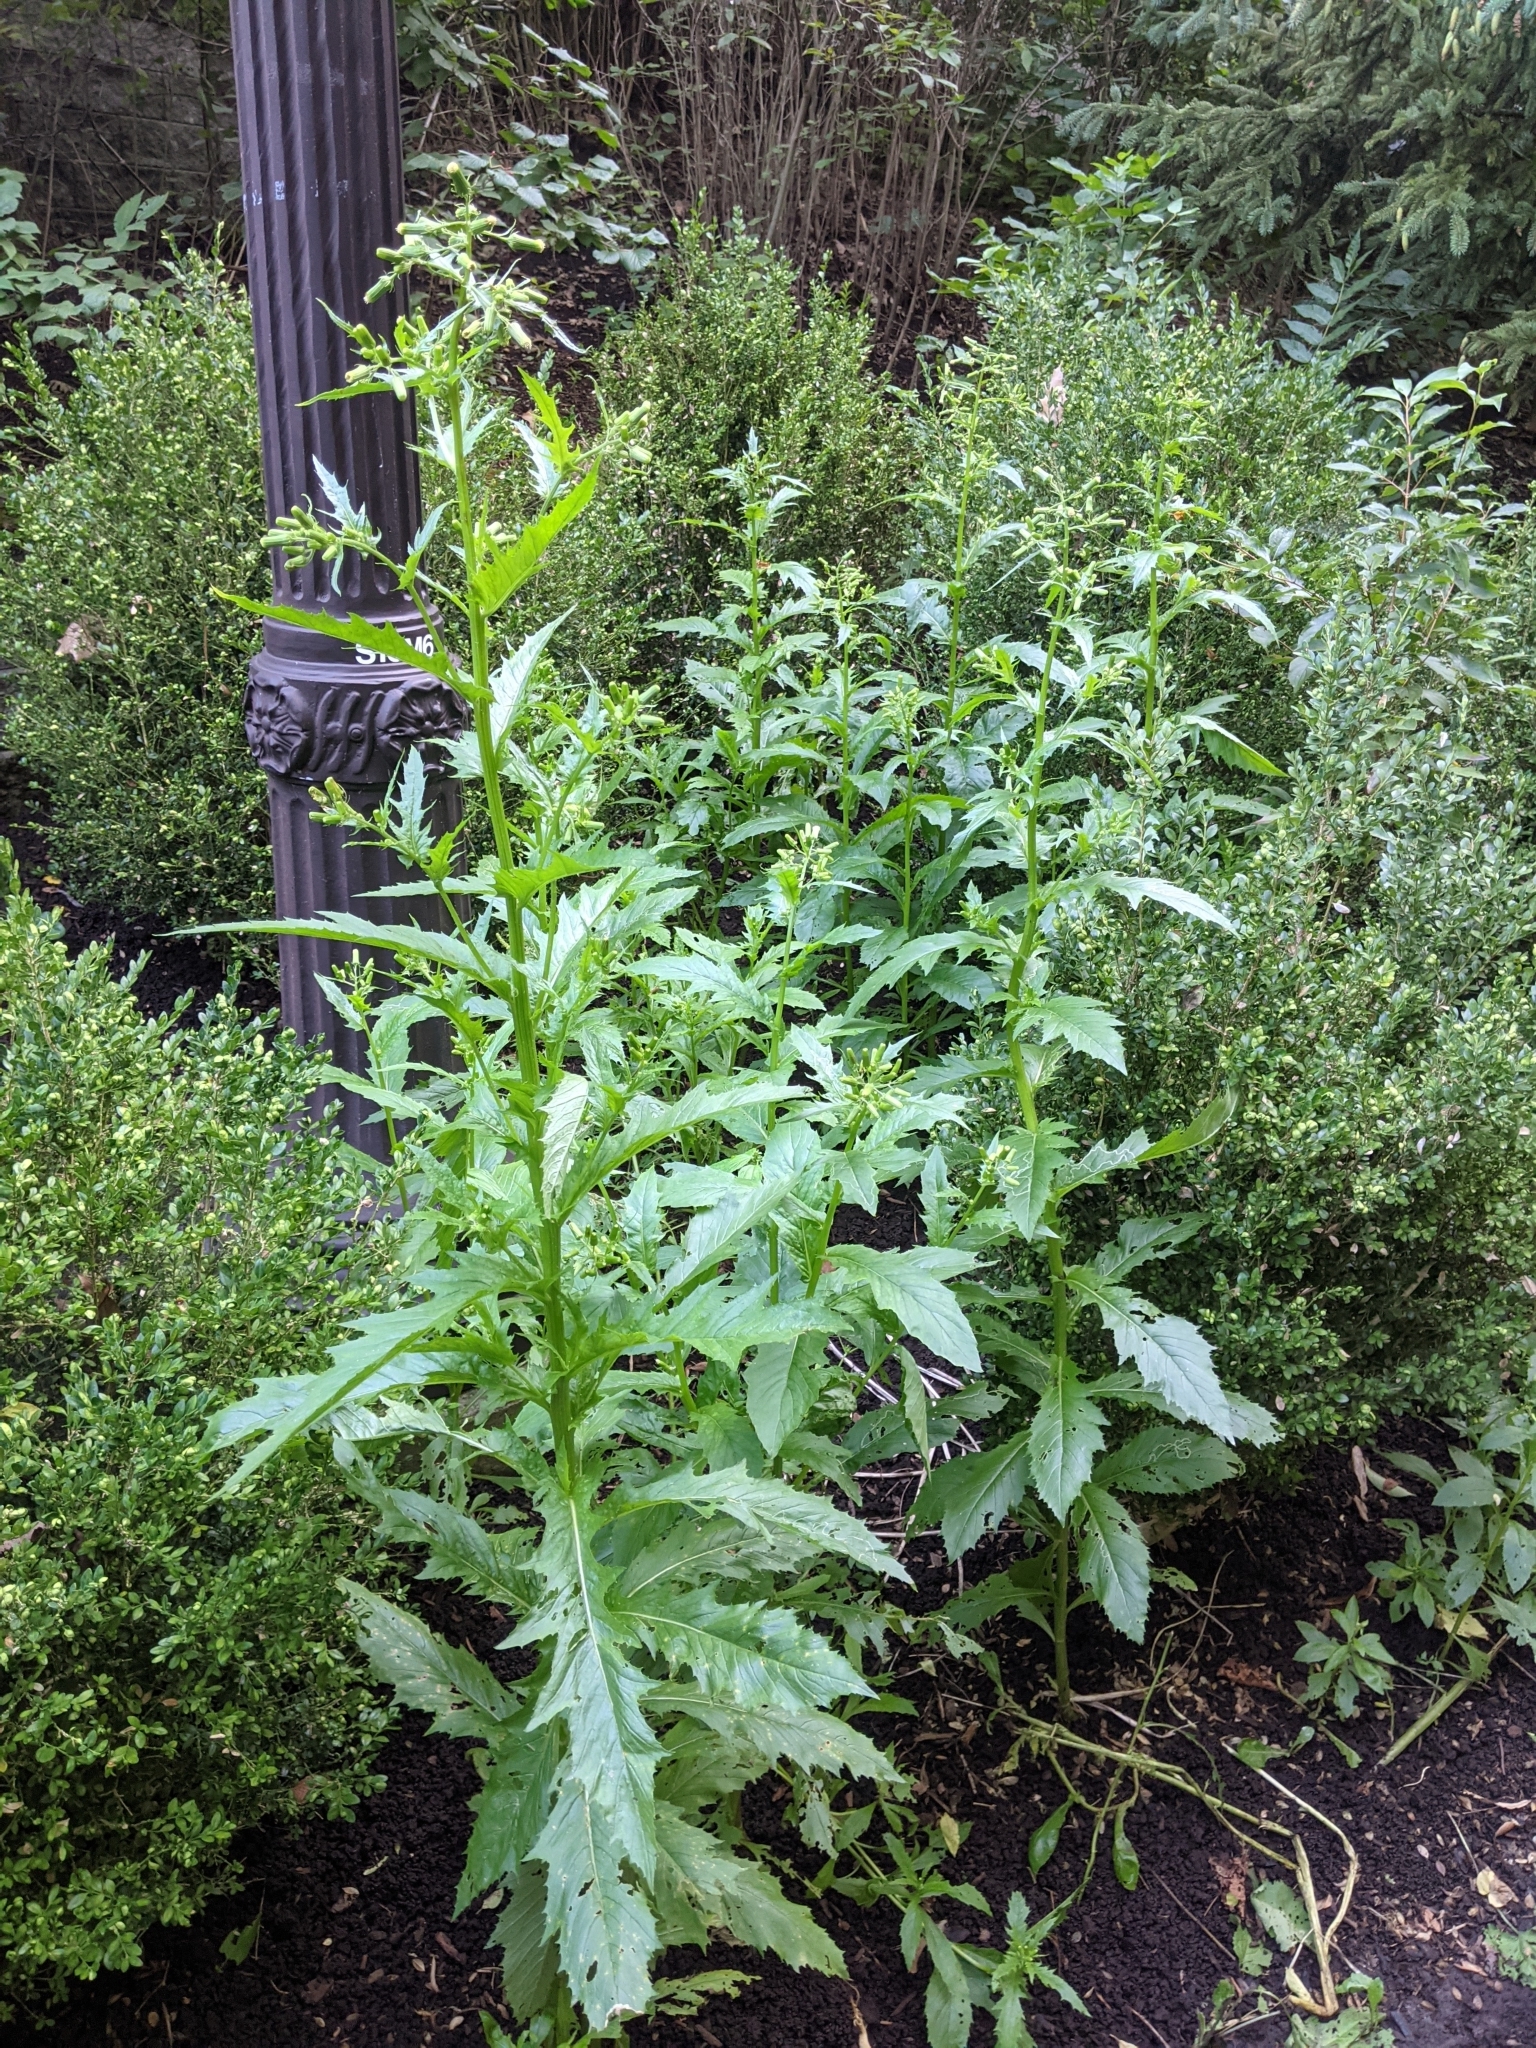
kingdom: Plantae
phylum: Tracheophyta
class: Magnoliopsida
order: Asterales
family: Asteraceae
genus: Erechtites
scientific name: Erechtites hieraciifolius
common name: American burnweed
